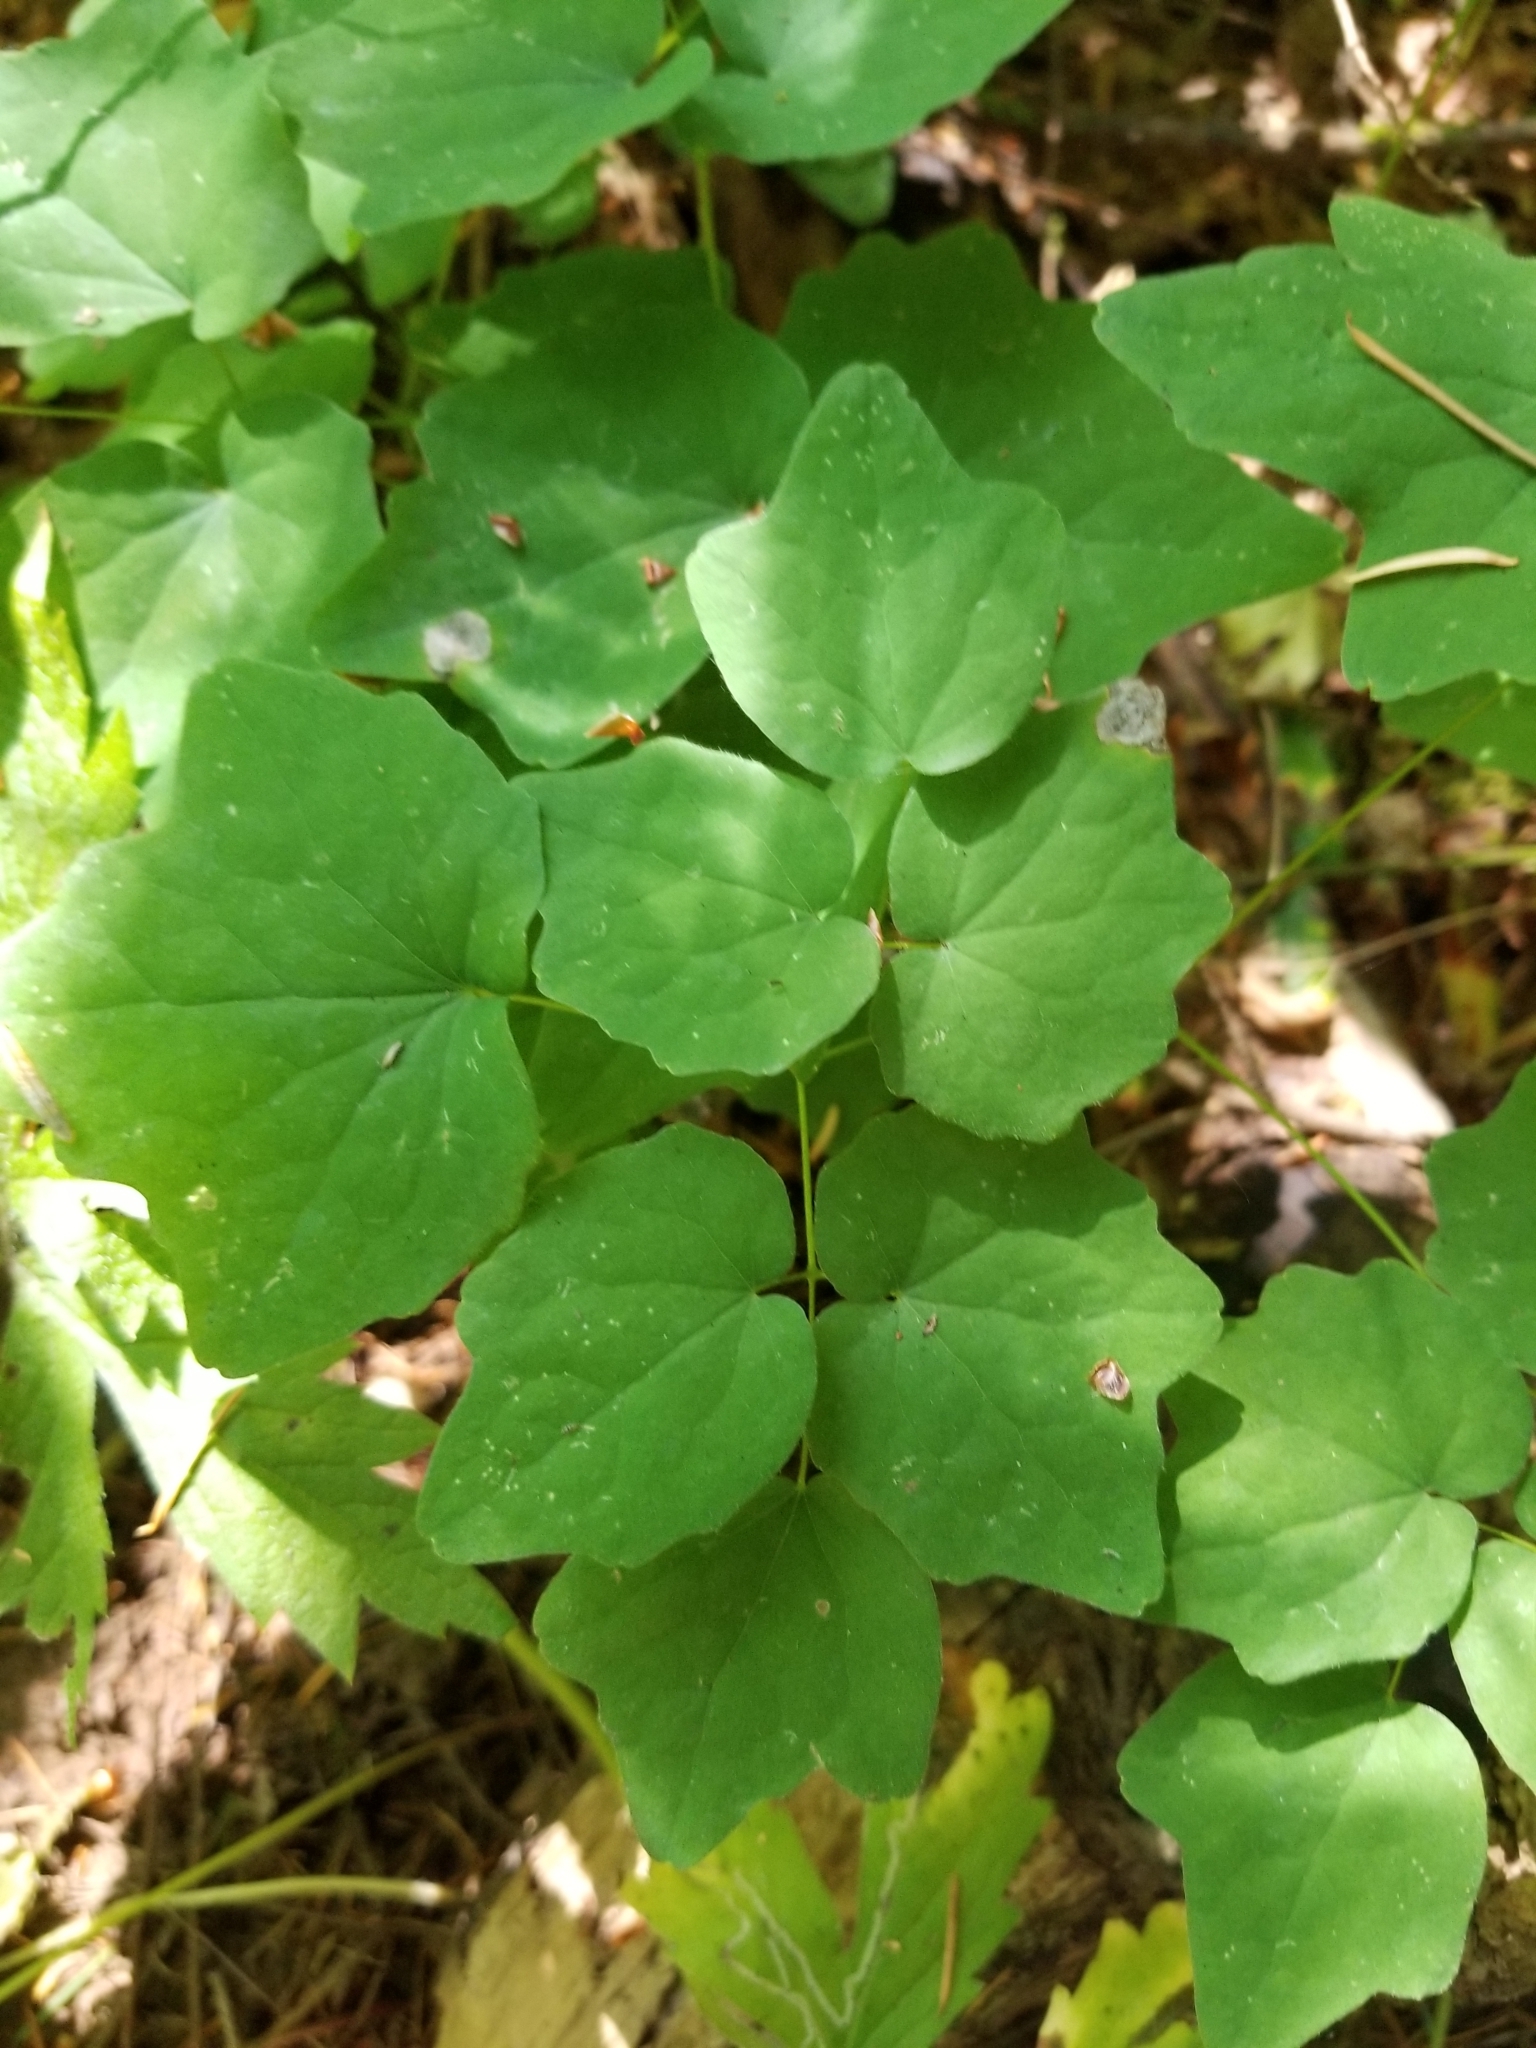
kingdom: Plantae
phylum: Tracheophyta
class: Magnoliopsida
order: Ranunculales
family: Berberidaceae
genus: Vancouveria
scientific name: Vancouveria hexandra
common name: Northern inside-out-flower
